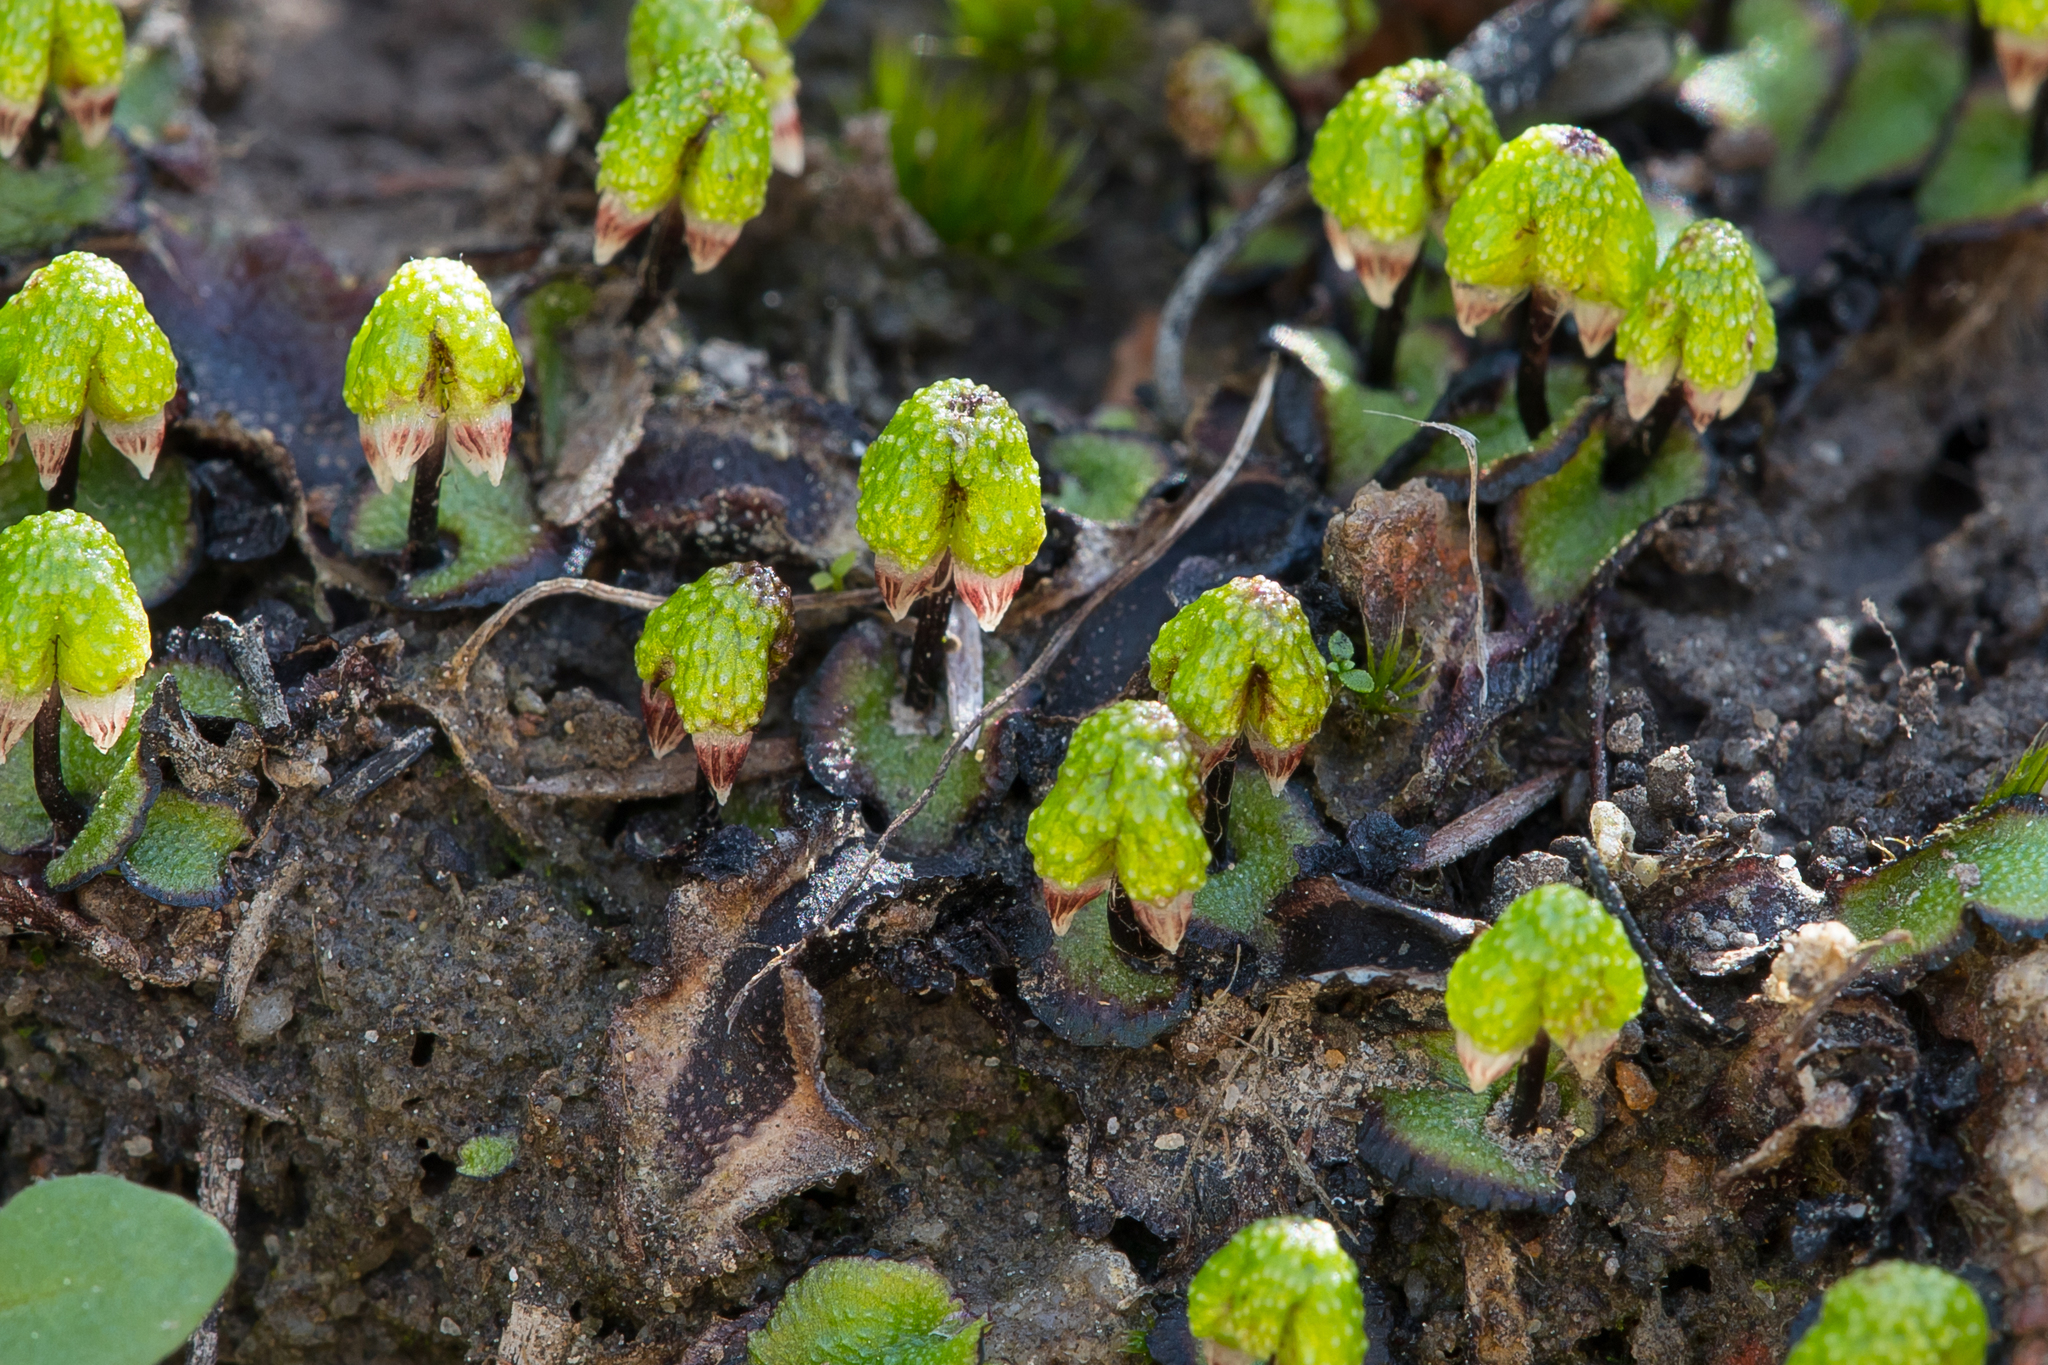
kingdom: Plantae
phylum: Marchantiophyta
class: Marchantiopsida
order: Marchantiales
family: Aytoniaceae
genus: Asterella
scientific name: Asterella drummondii
